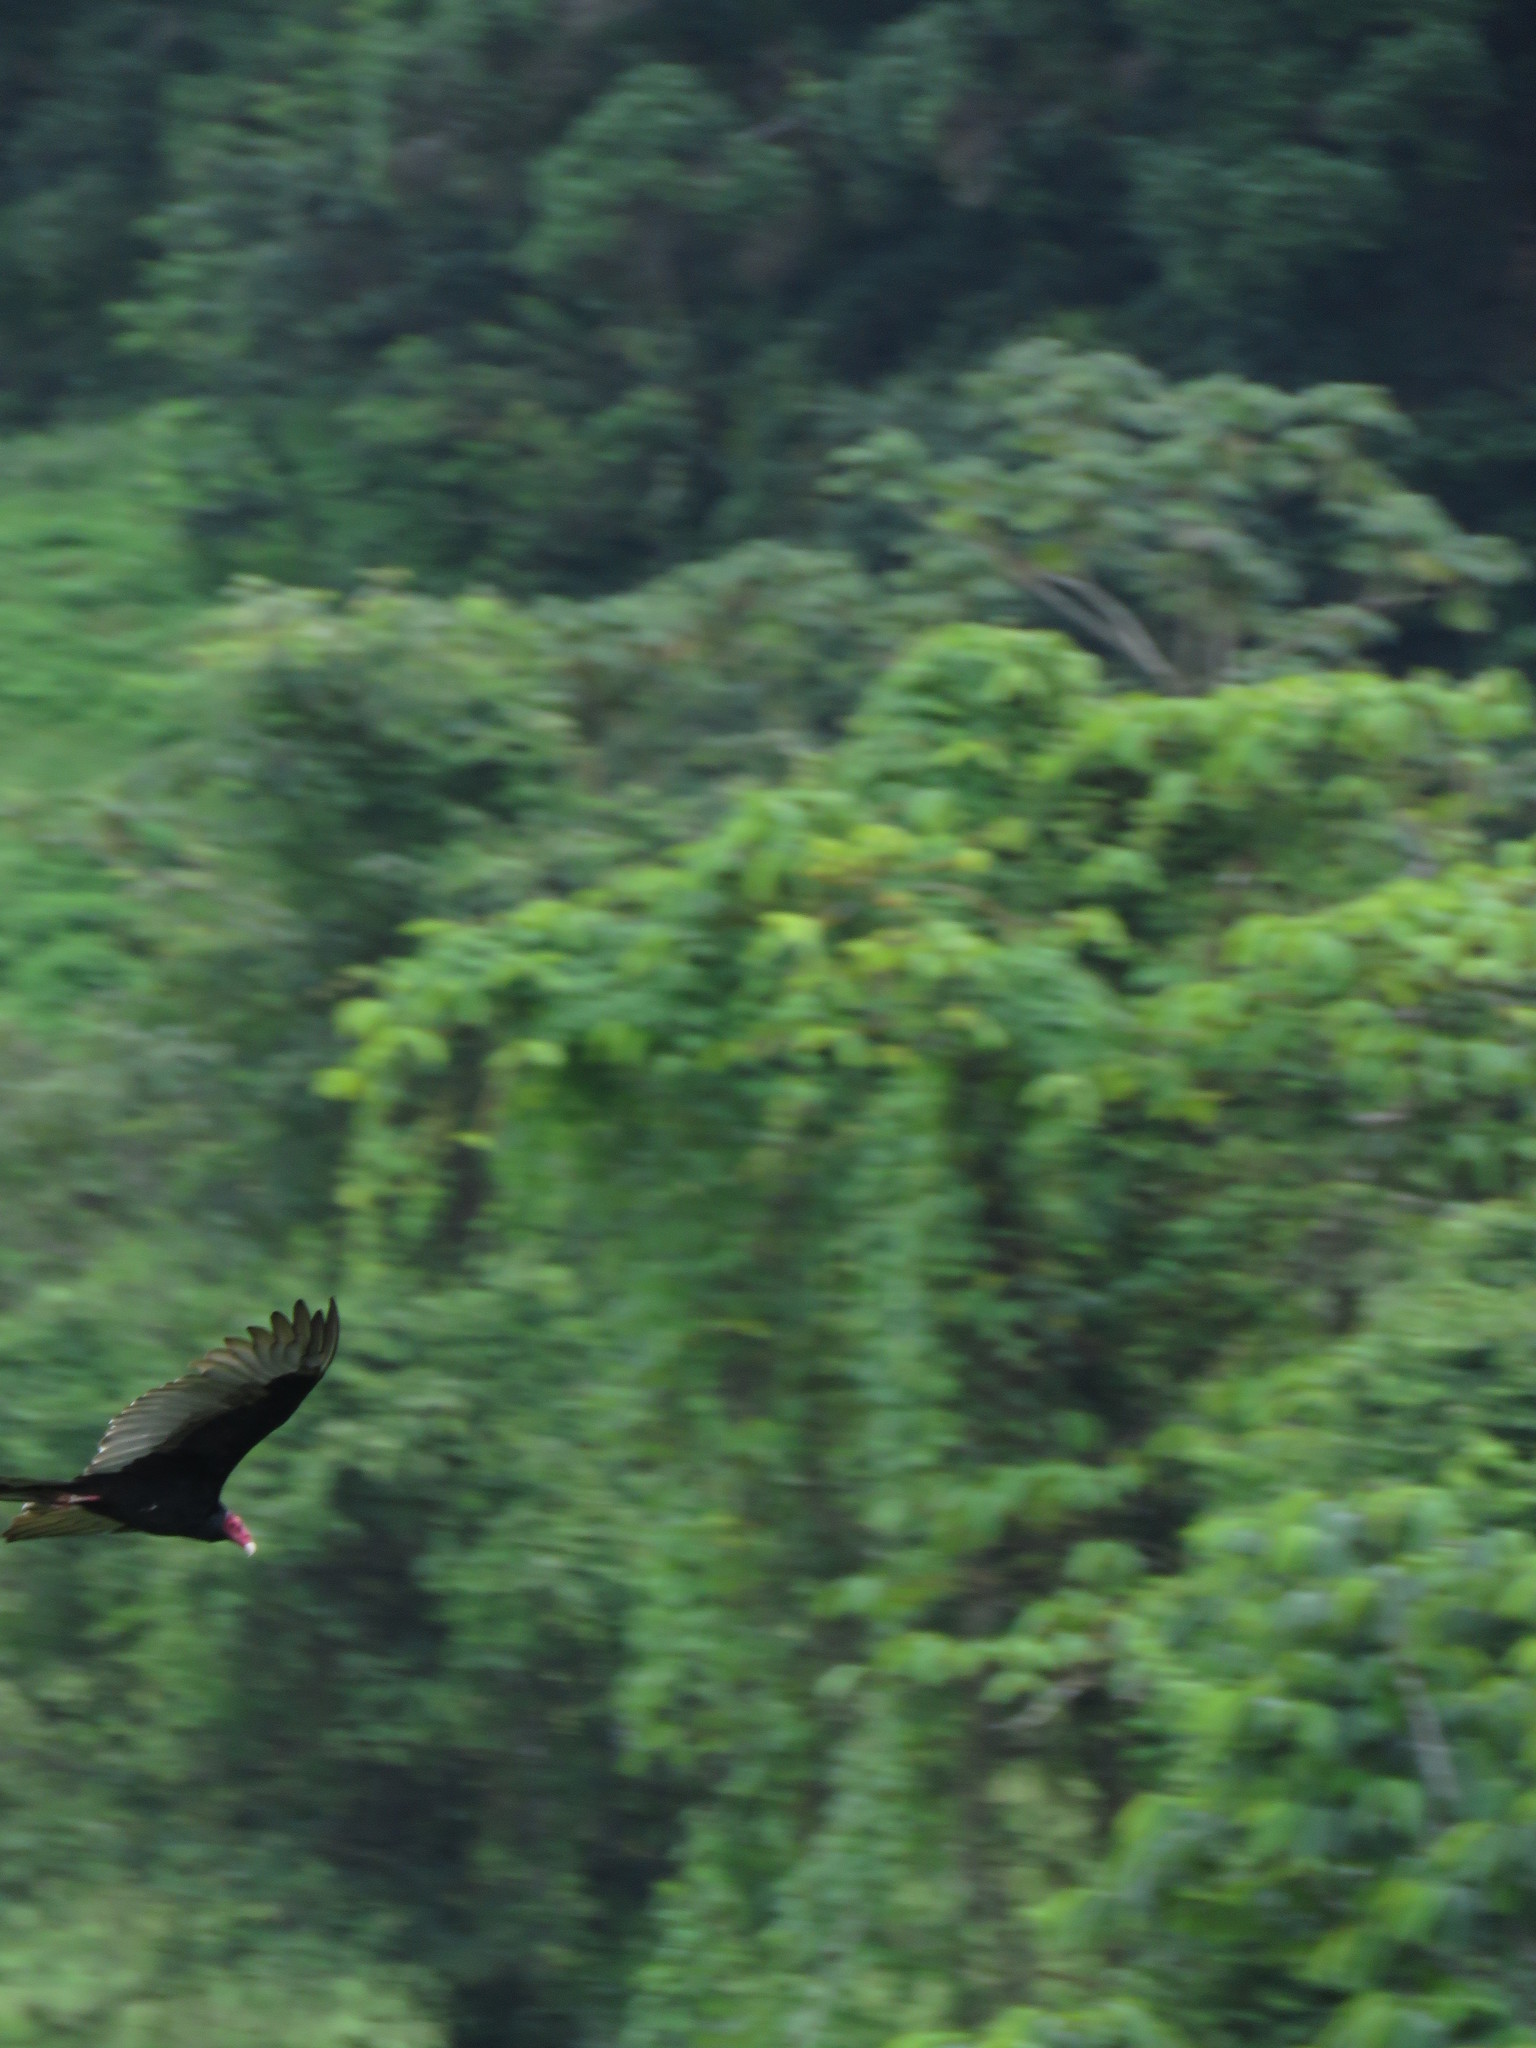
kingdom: Animalia
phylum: Chordata
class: Aves
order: Accipitriformes
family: Cathartidae
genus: Cathartes
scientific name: Cathartes aura
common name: Turkey vulture
